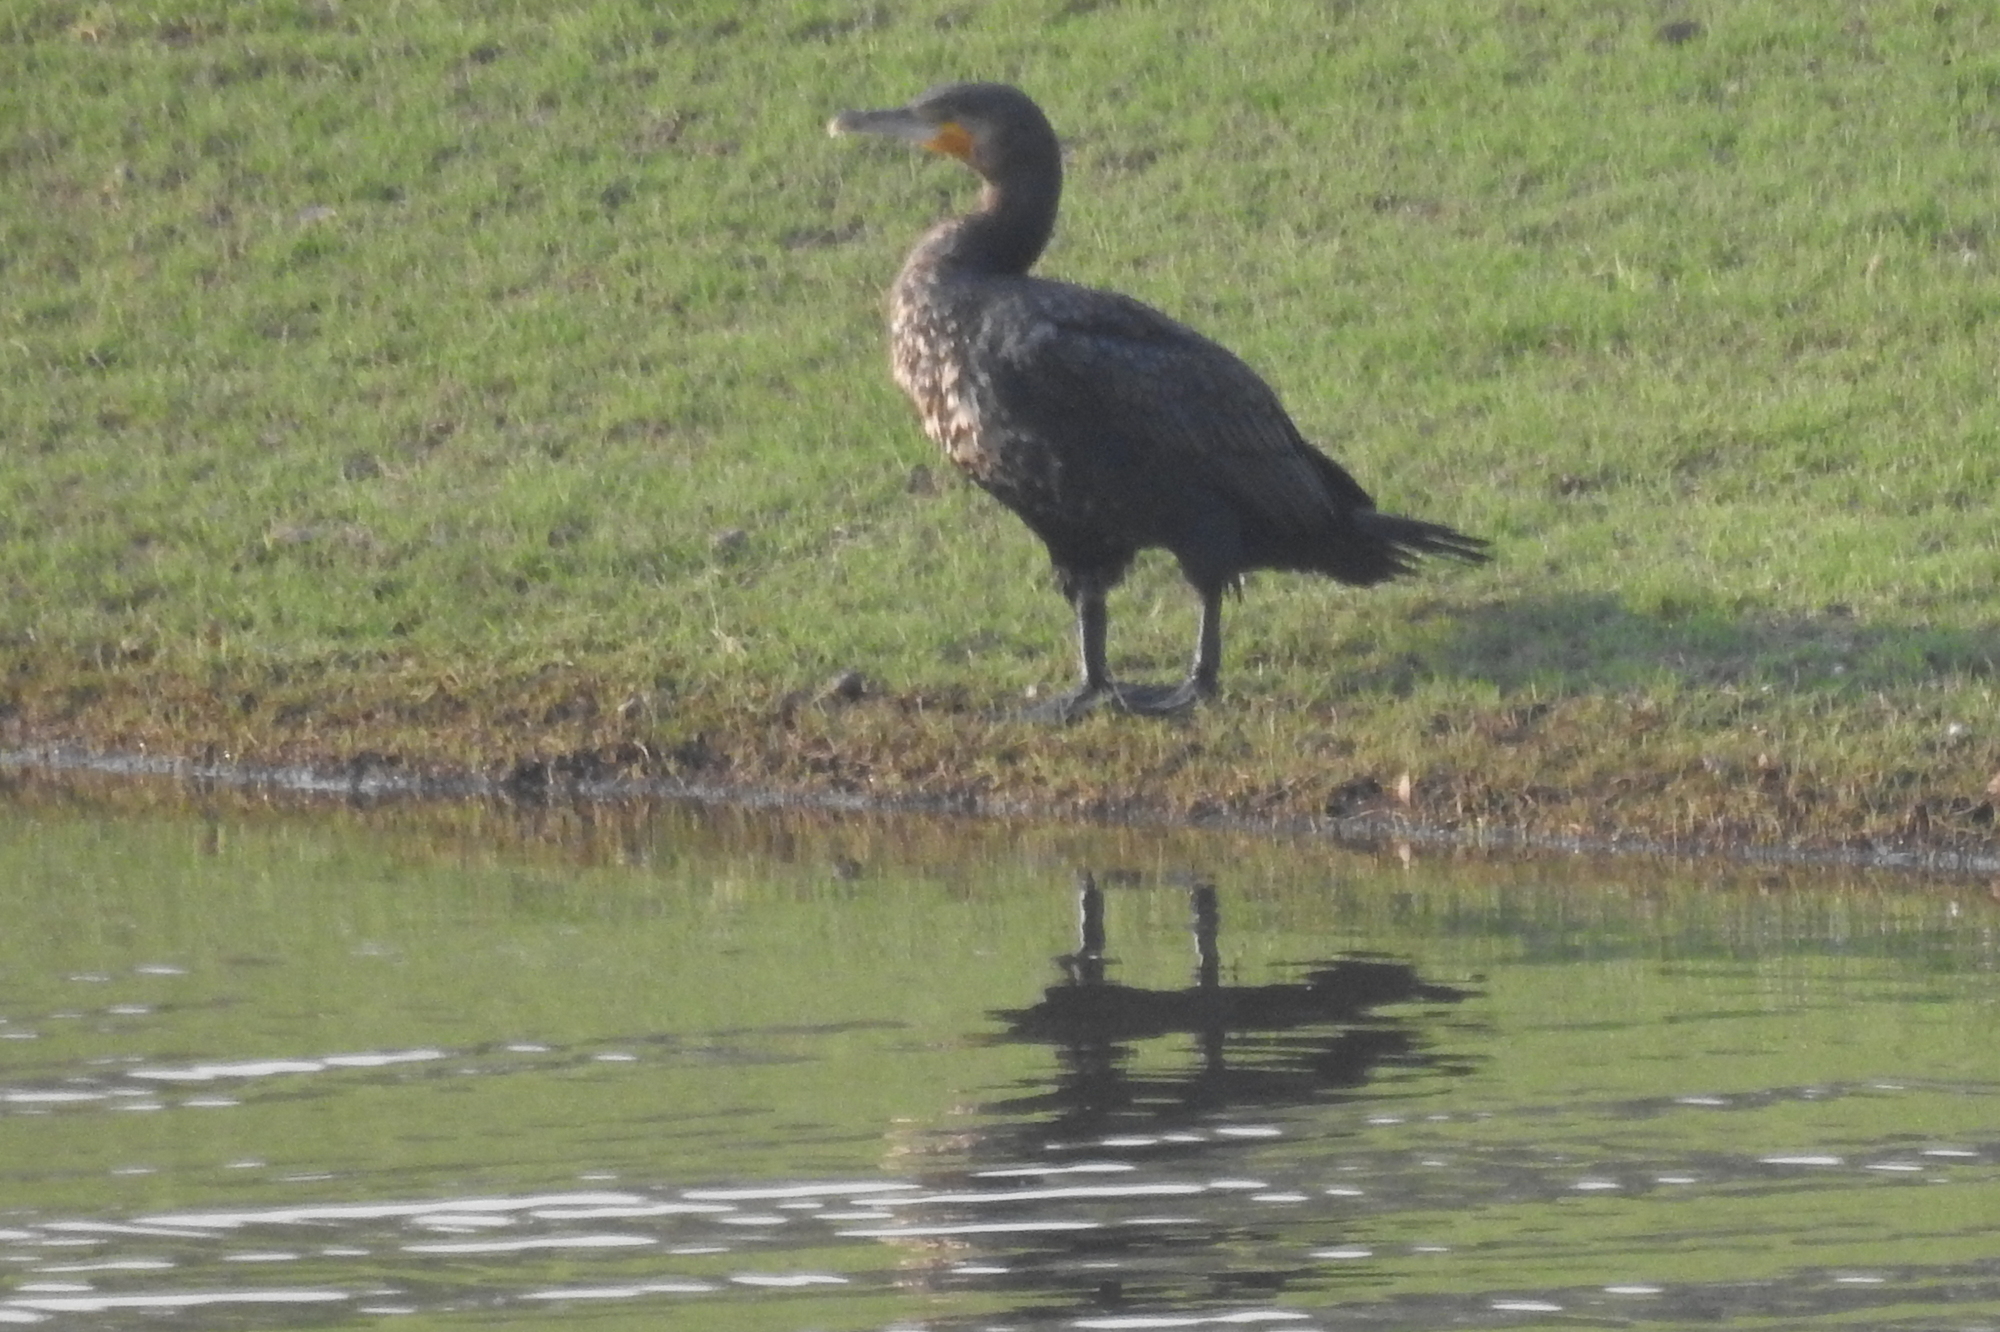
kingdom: Animalia
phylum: Chordata
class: Aves
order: Suliformes
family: Phalacrocoracidae
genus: Phalacrocorax
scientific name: Phalacrocorax carbo
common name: Great cormorant
